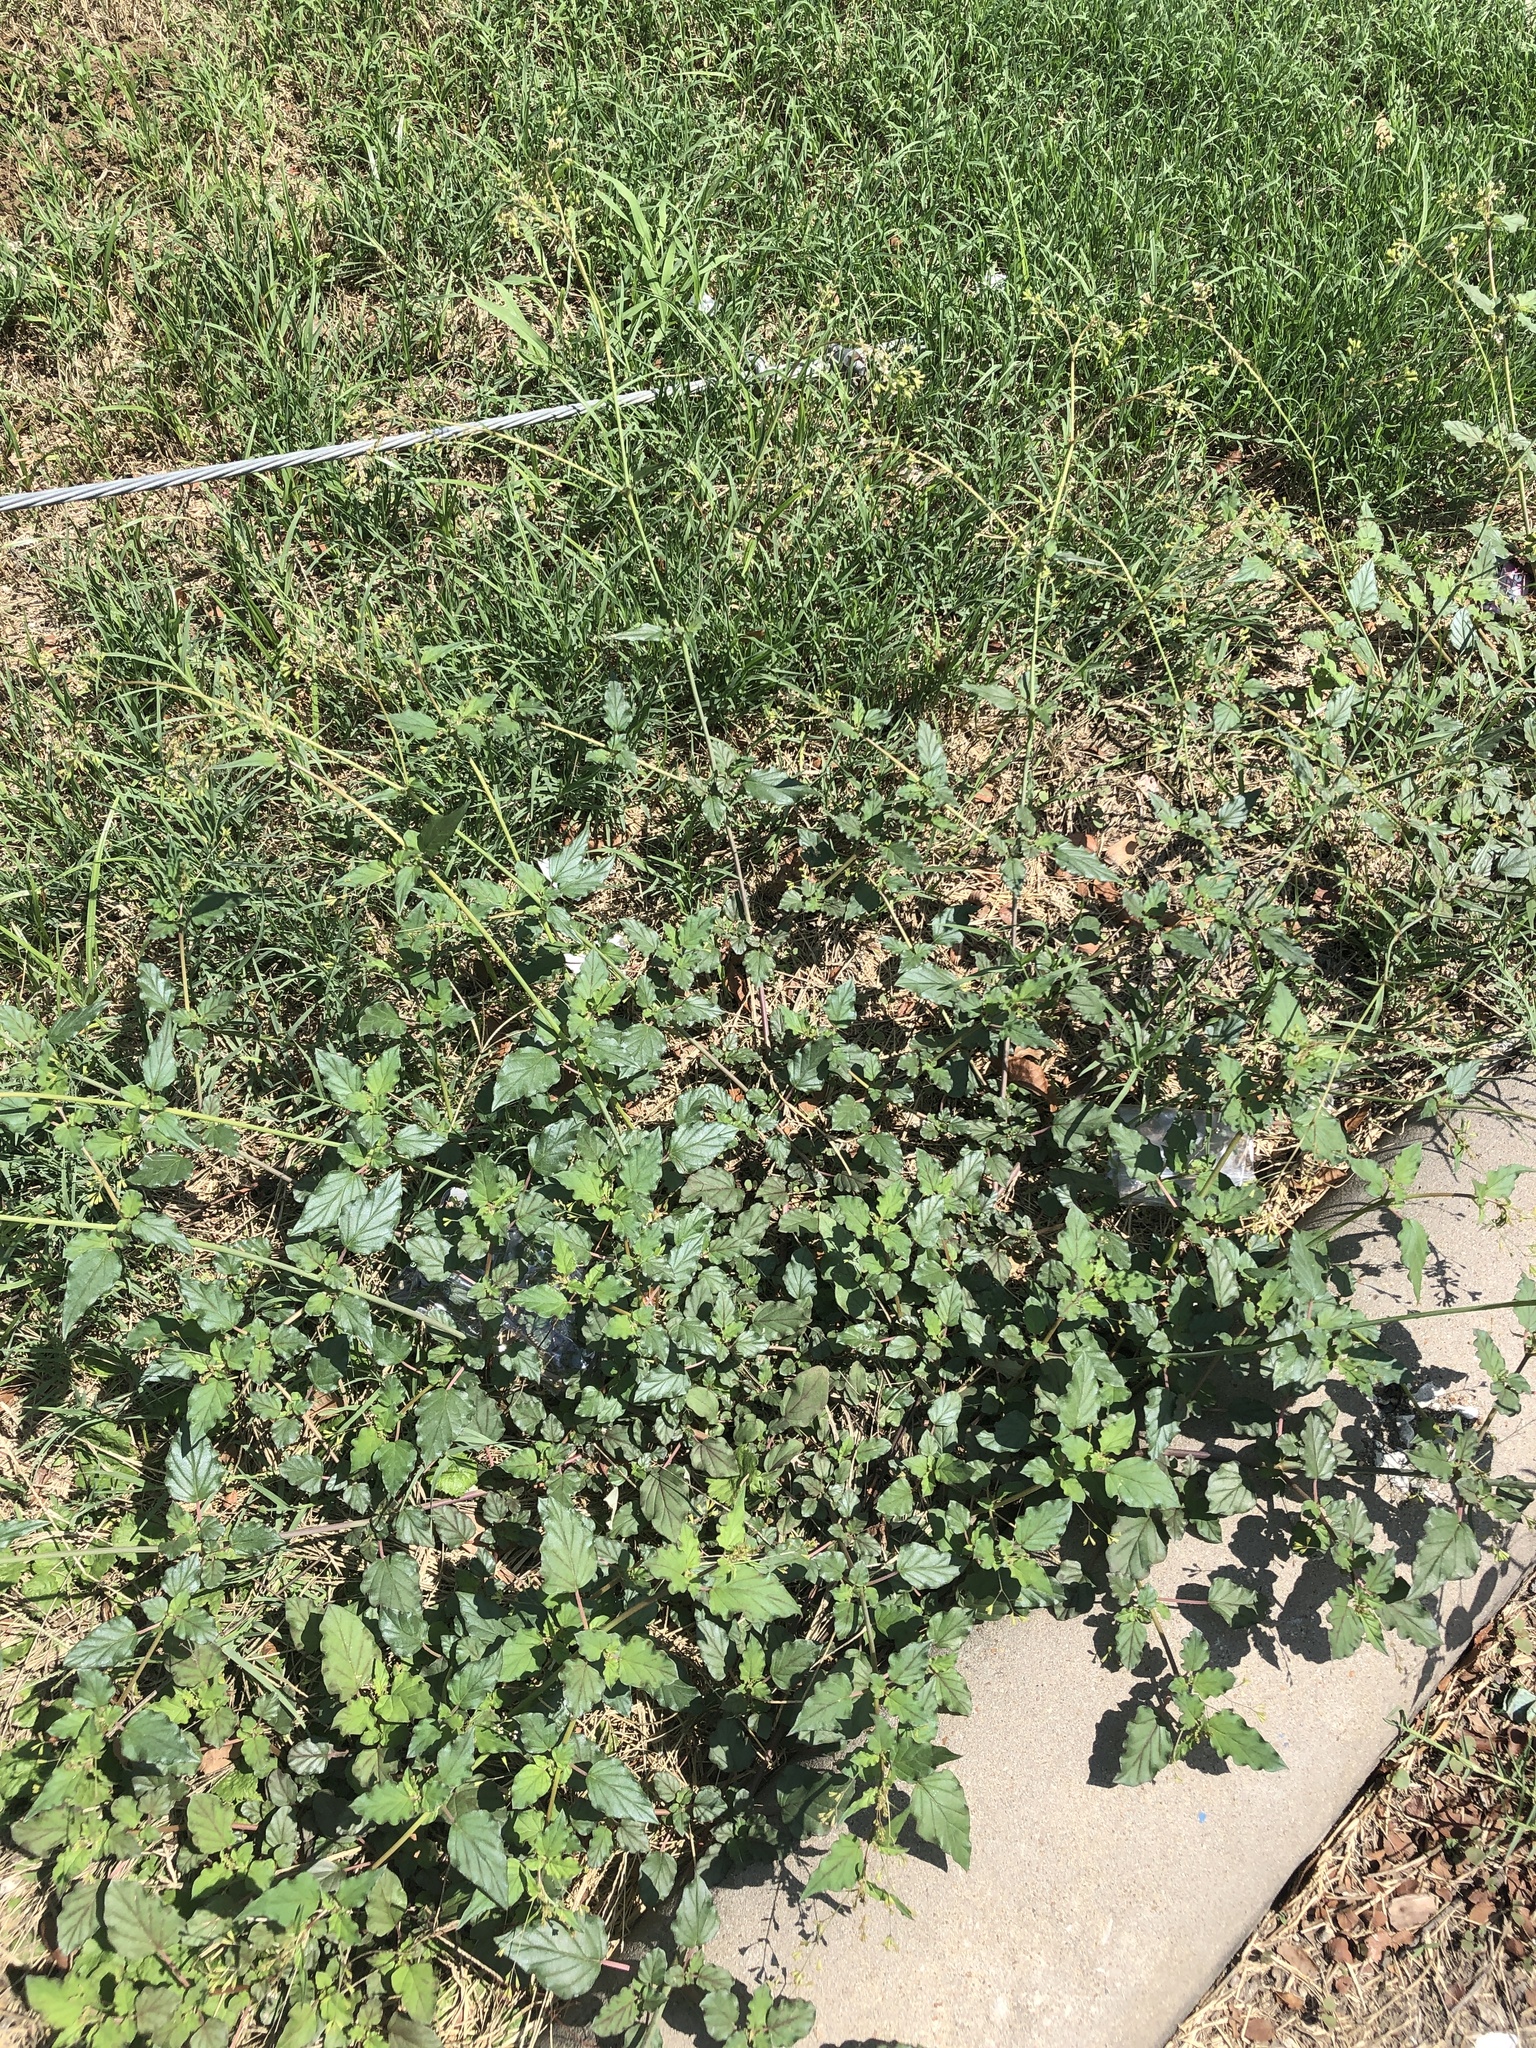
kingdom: Plantae
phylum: Tracheophyta
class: Magnoliopsida
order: Caryophyllales
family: Nyctaginaceae
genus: Boerhavia
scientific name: Boerhavia erecta
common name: Erect spiderling
